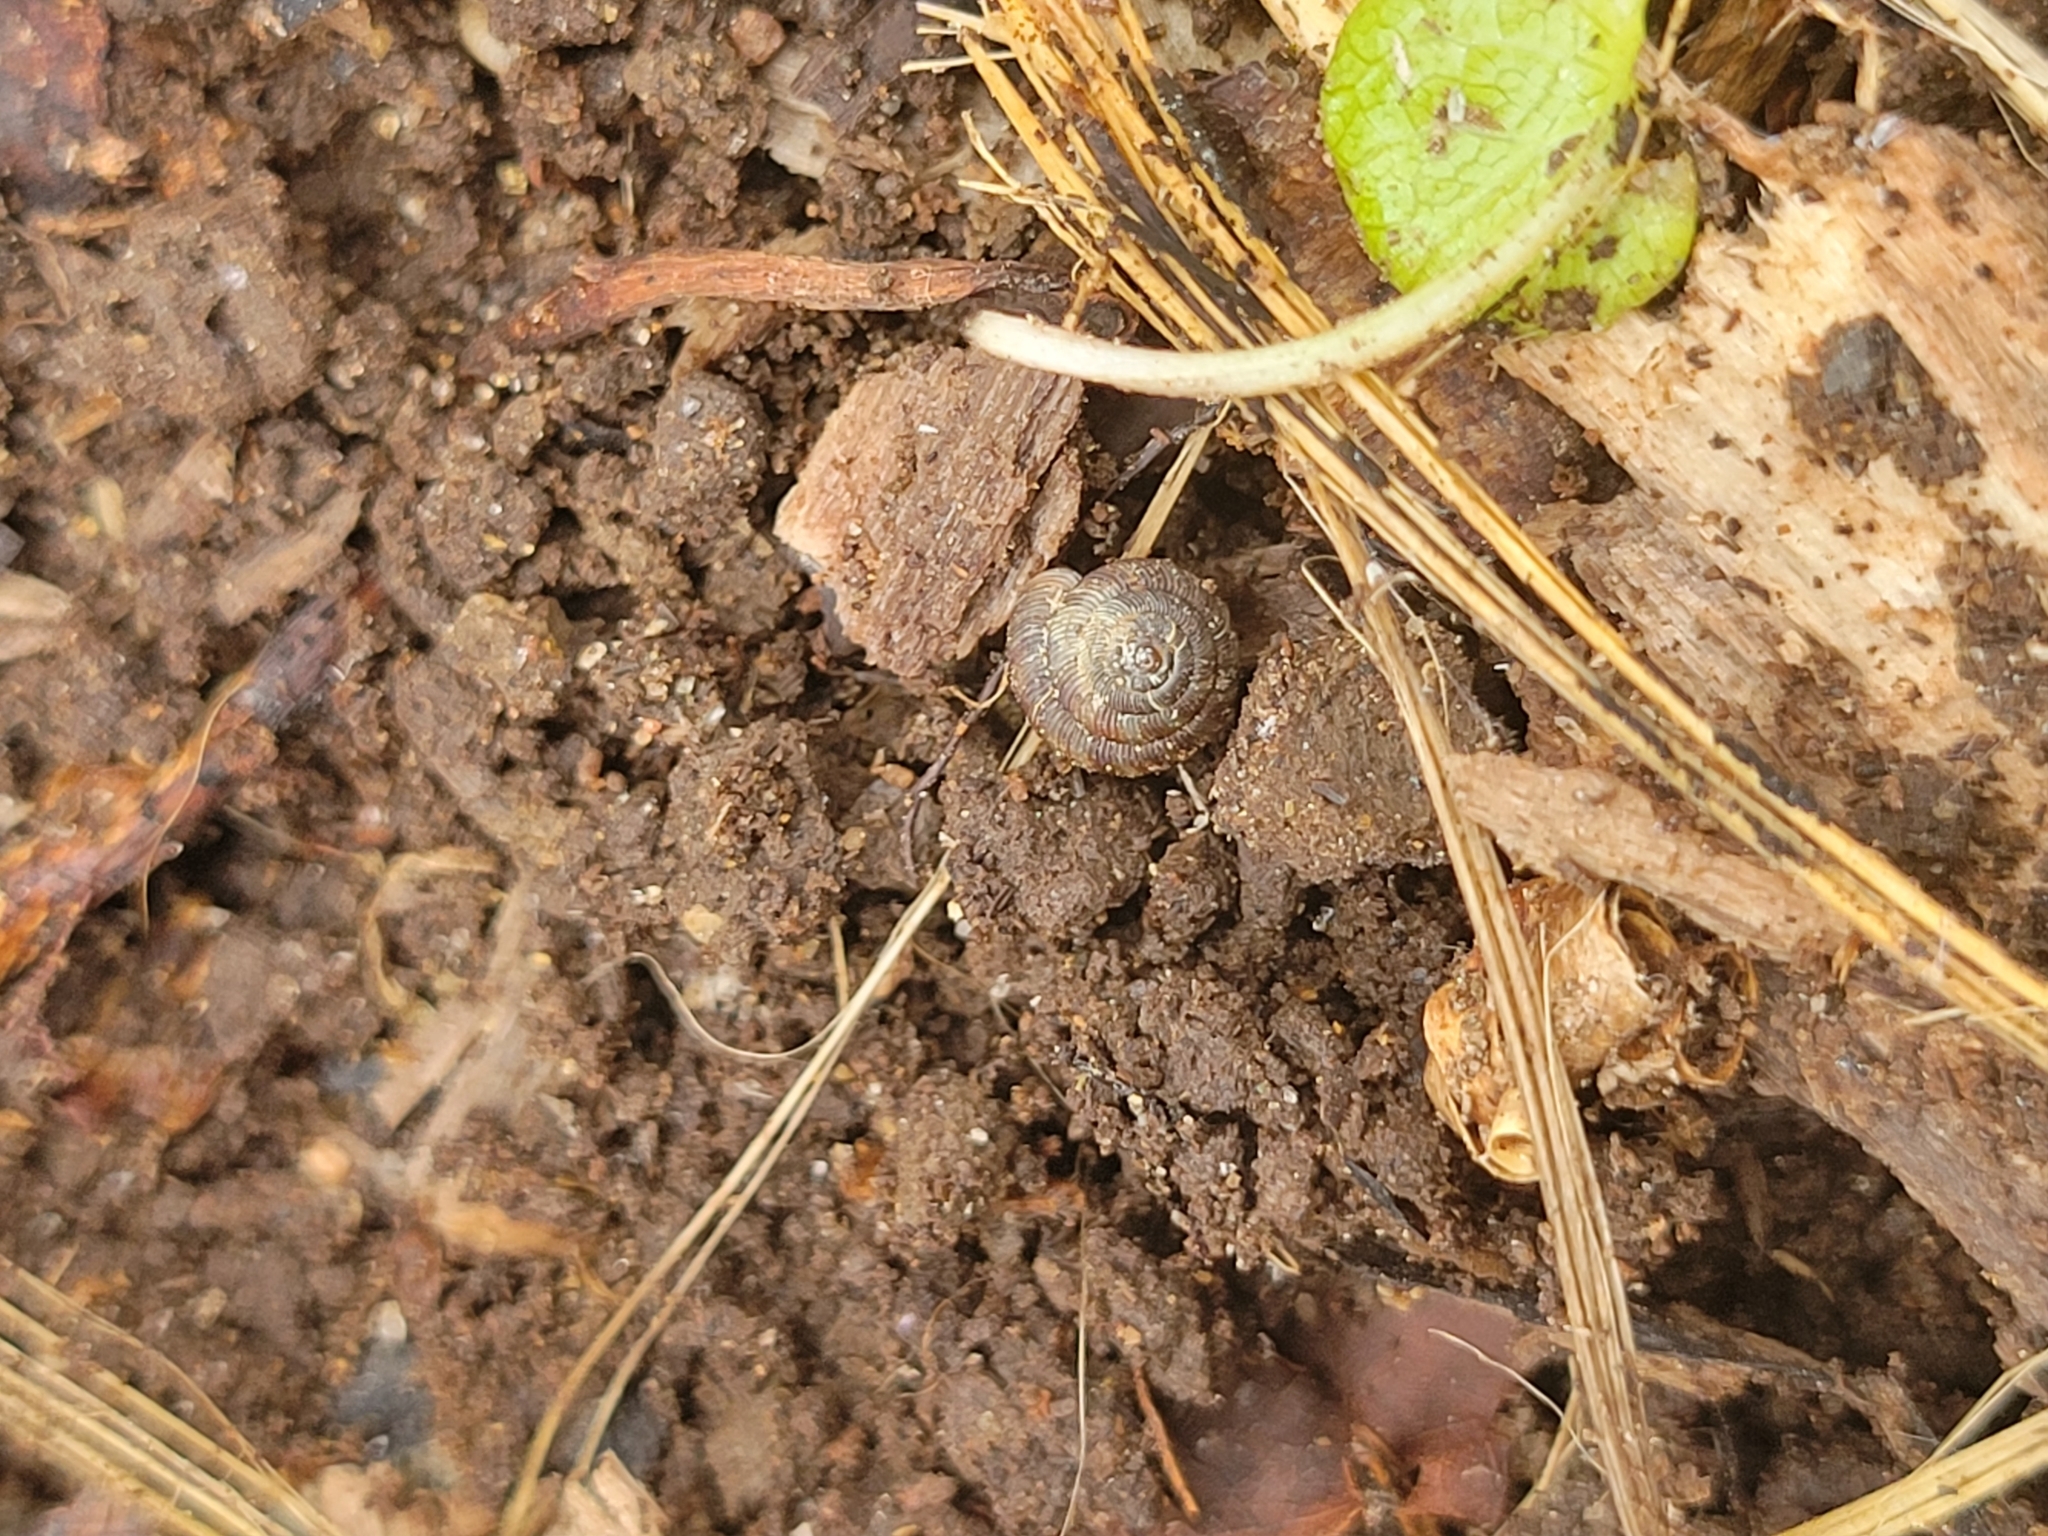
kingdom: Animalia
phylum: Mollusca
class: Gastropoda
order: Stylommatophora
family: Discidae
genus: Discus
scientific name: Discus rotundatus
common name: Rounded snail
